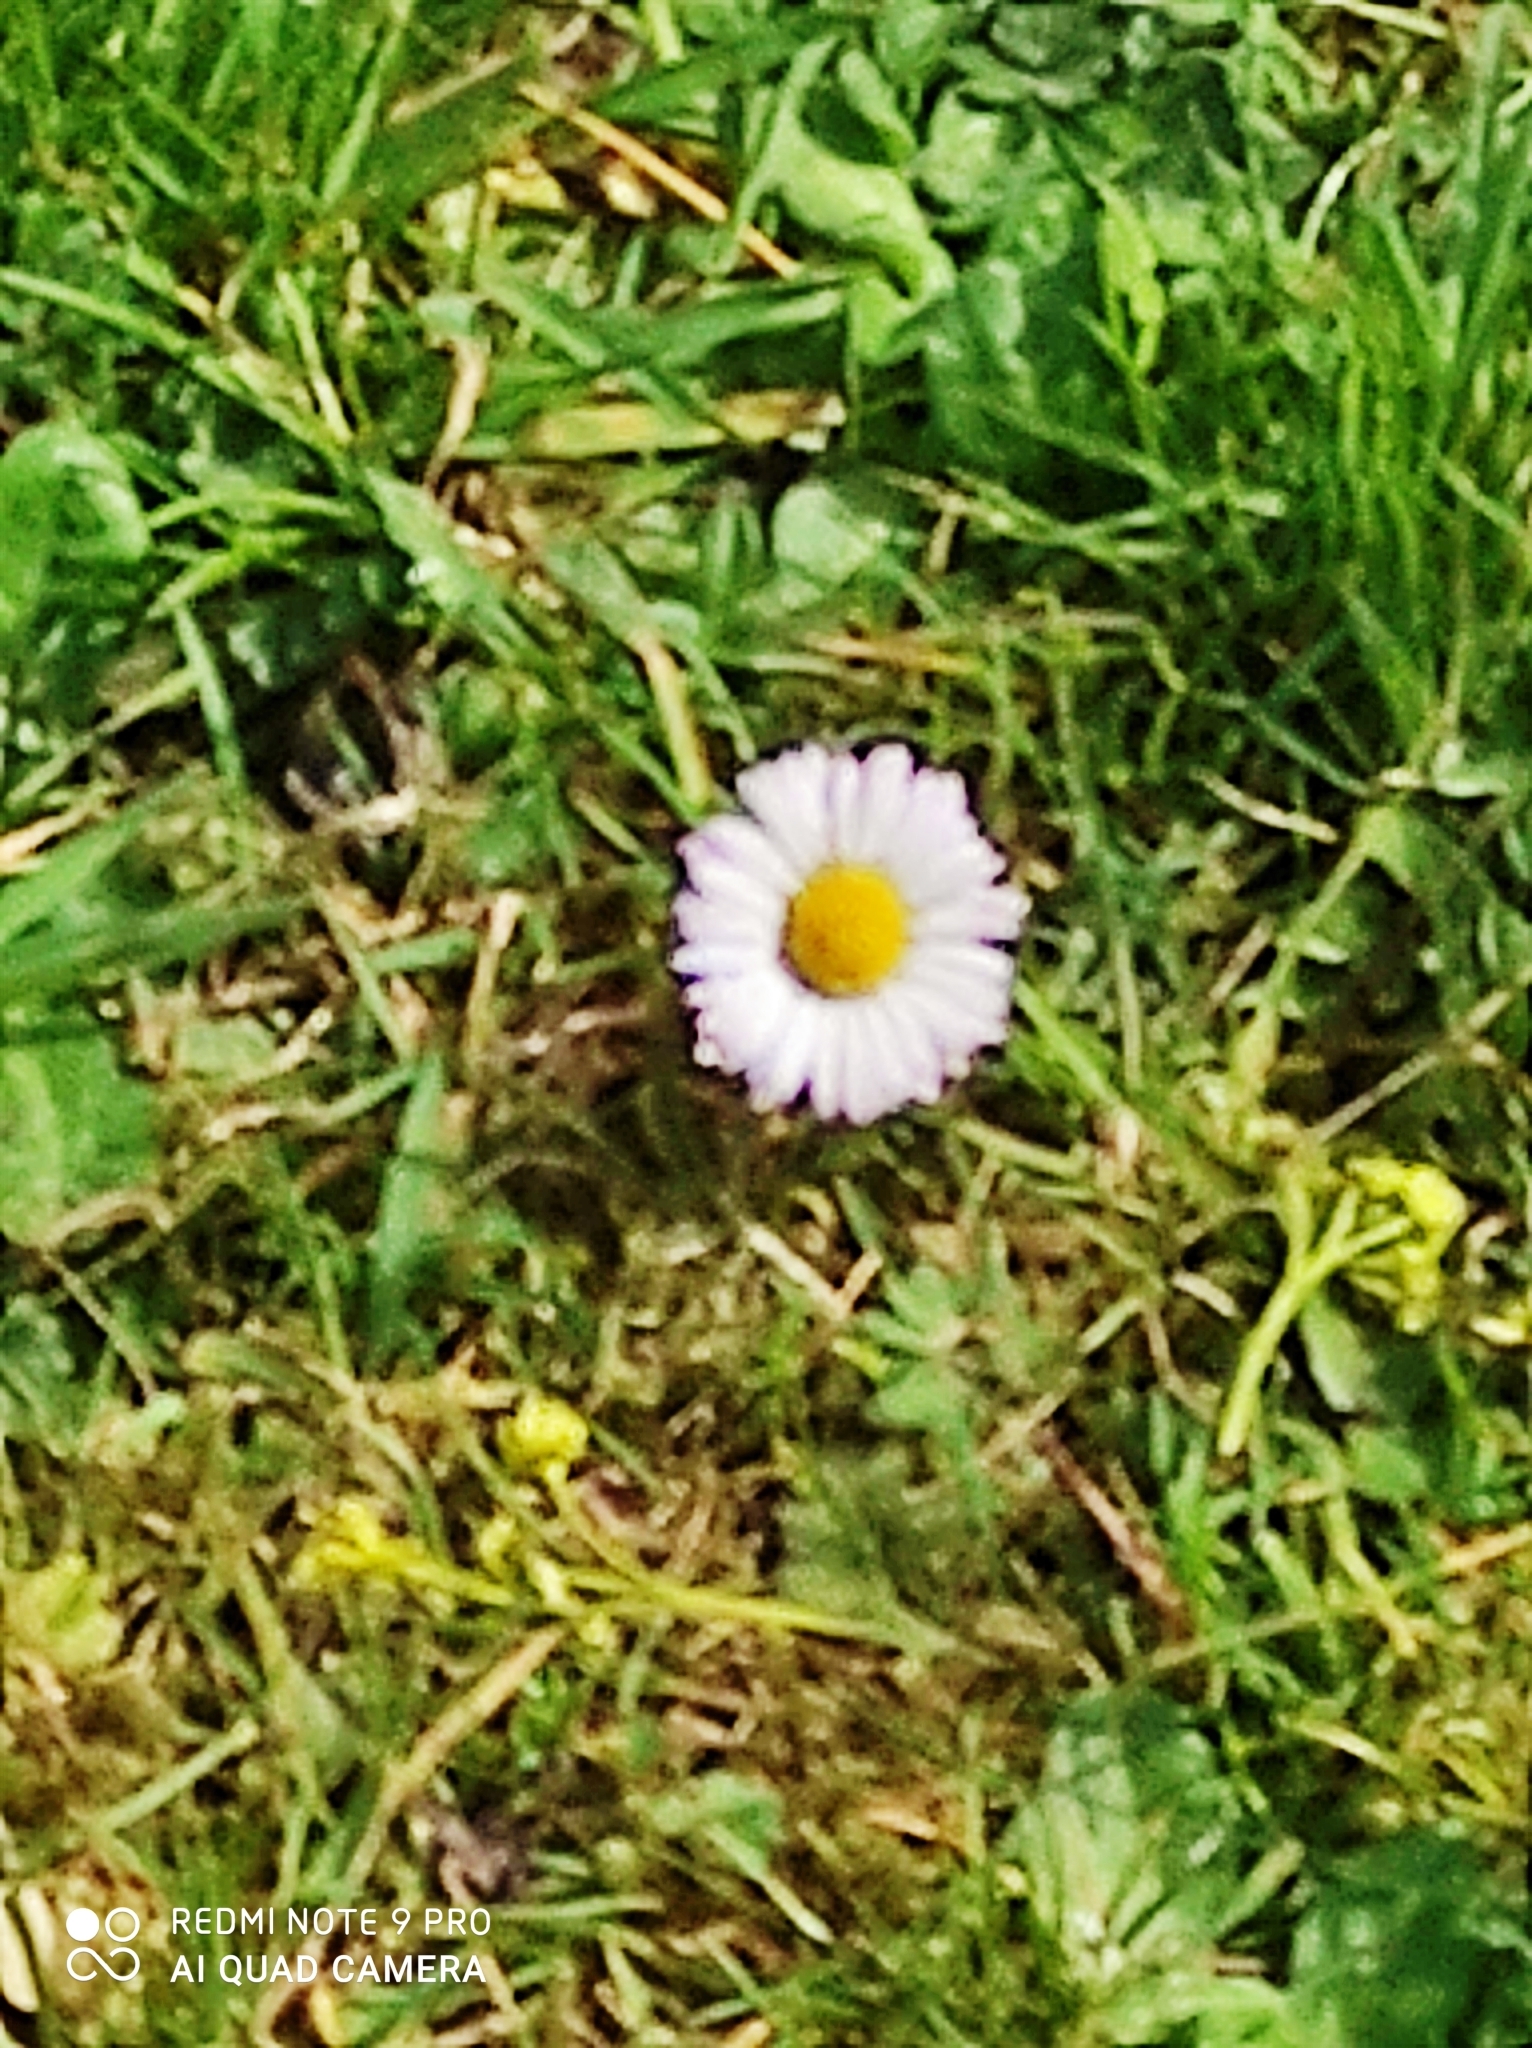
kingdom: Plantae
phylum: Tracheophyta
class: Magnoliopsida
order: Asterales
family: Asteraceae
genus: Bellis
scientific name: Bellis perennis
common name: Lawndaisy
